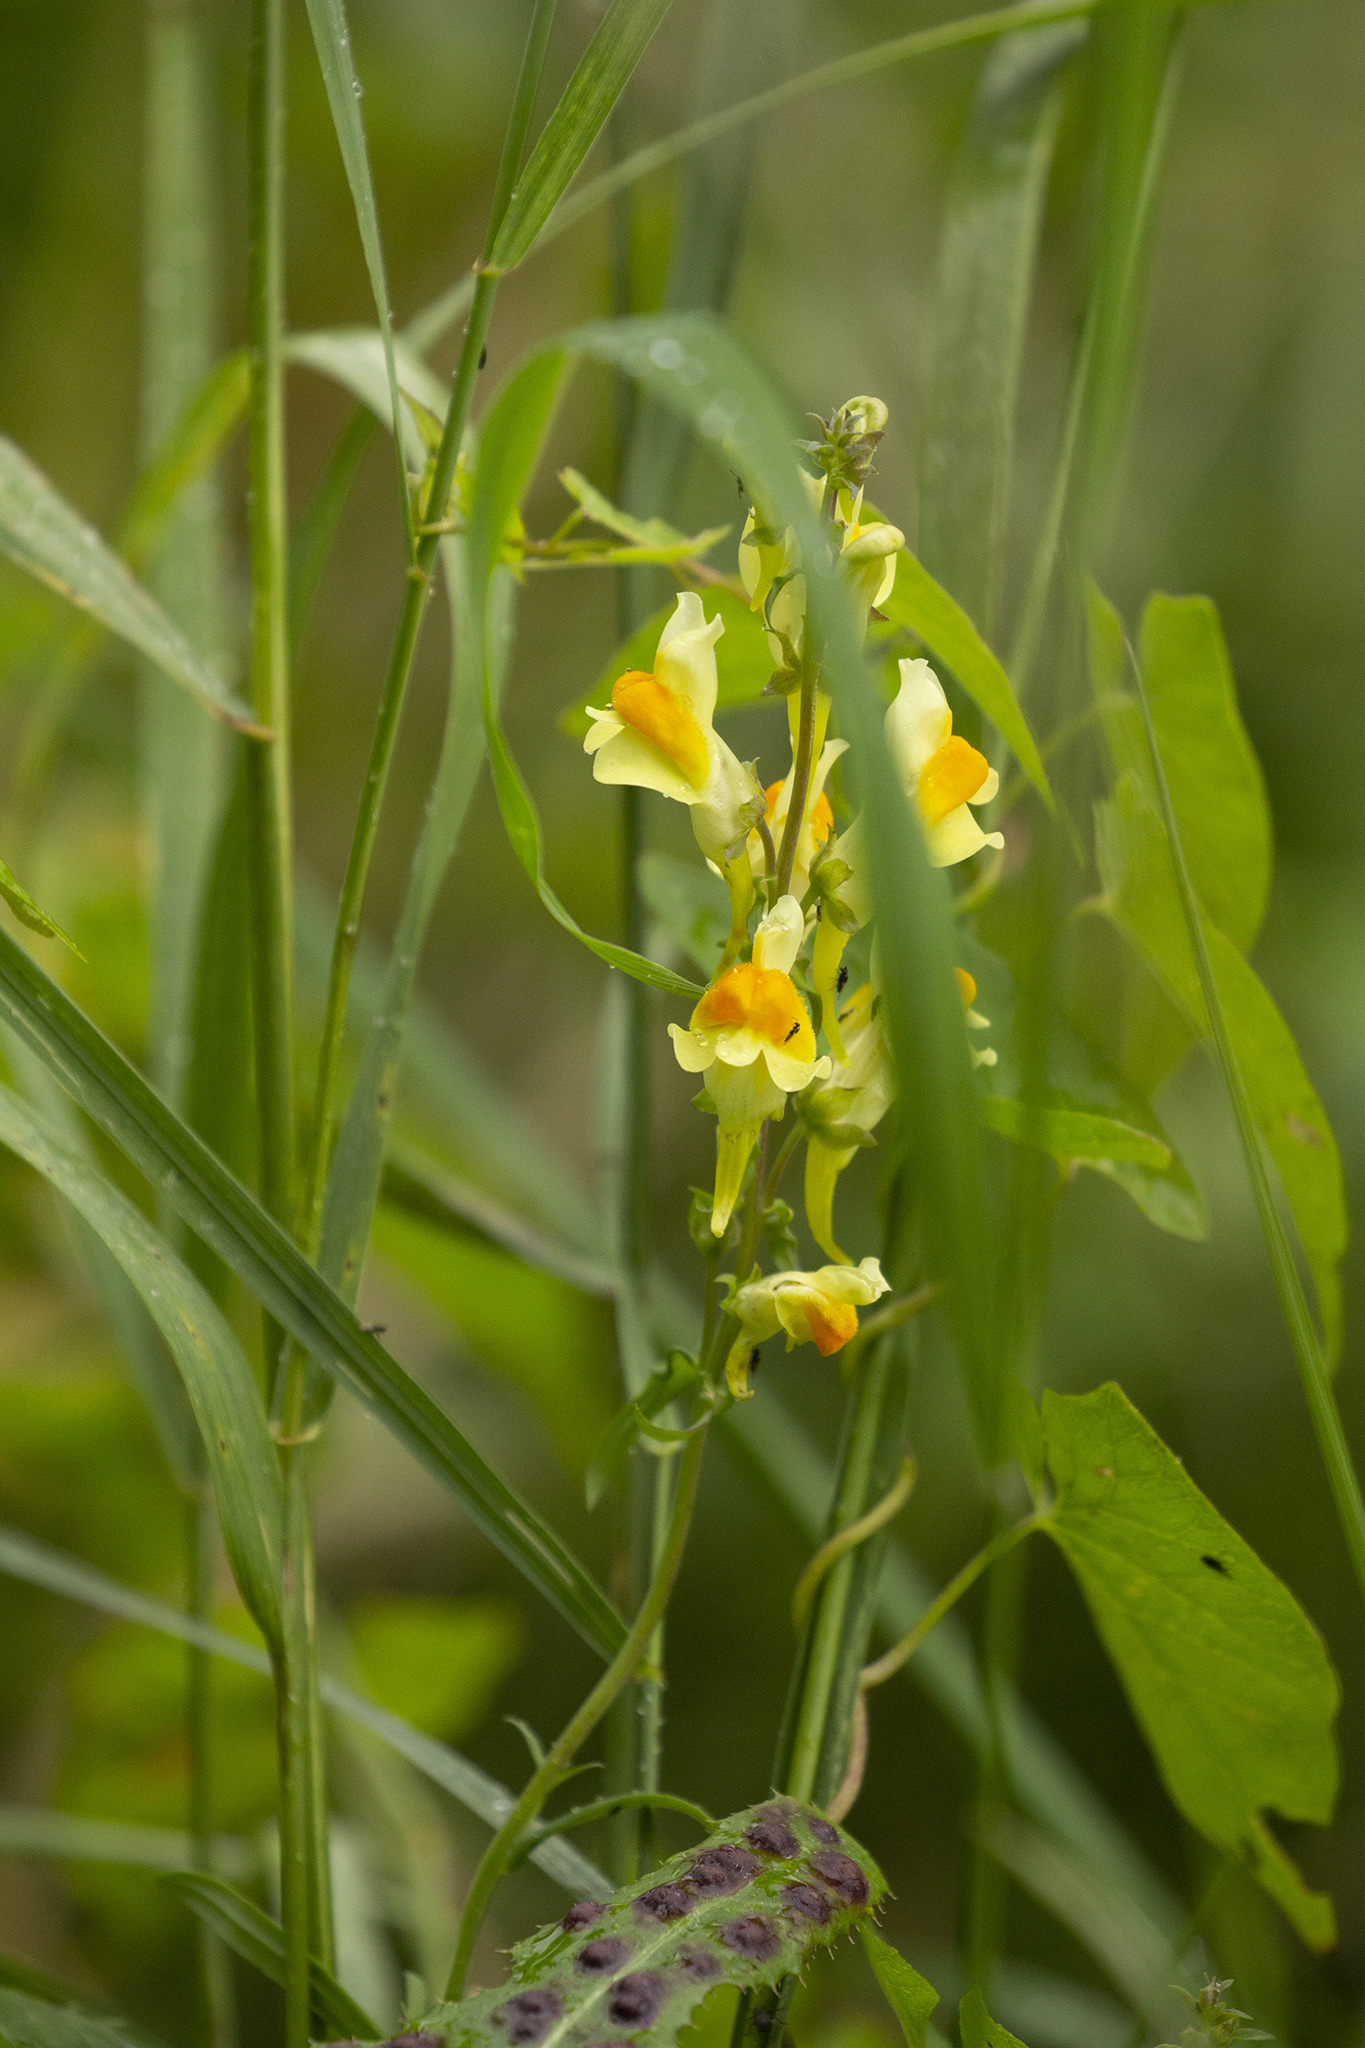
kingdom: Plantae
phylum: Tracheophyta
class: Magnoliopsida
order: Lamiales
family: Plantaginaceae
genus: Linaria
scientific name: Linaria vulgaris
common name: Butter and eggs
